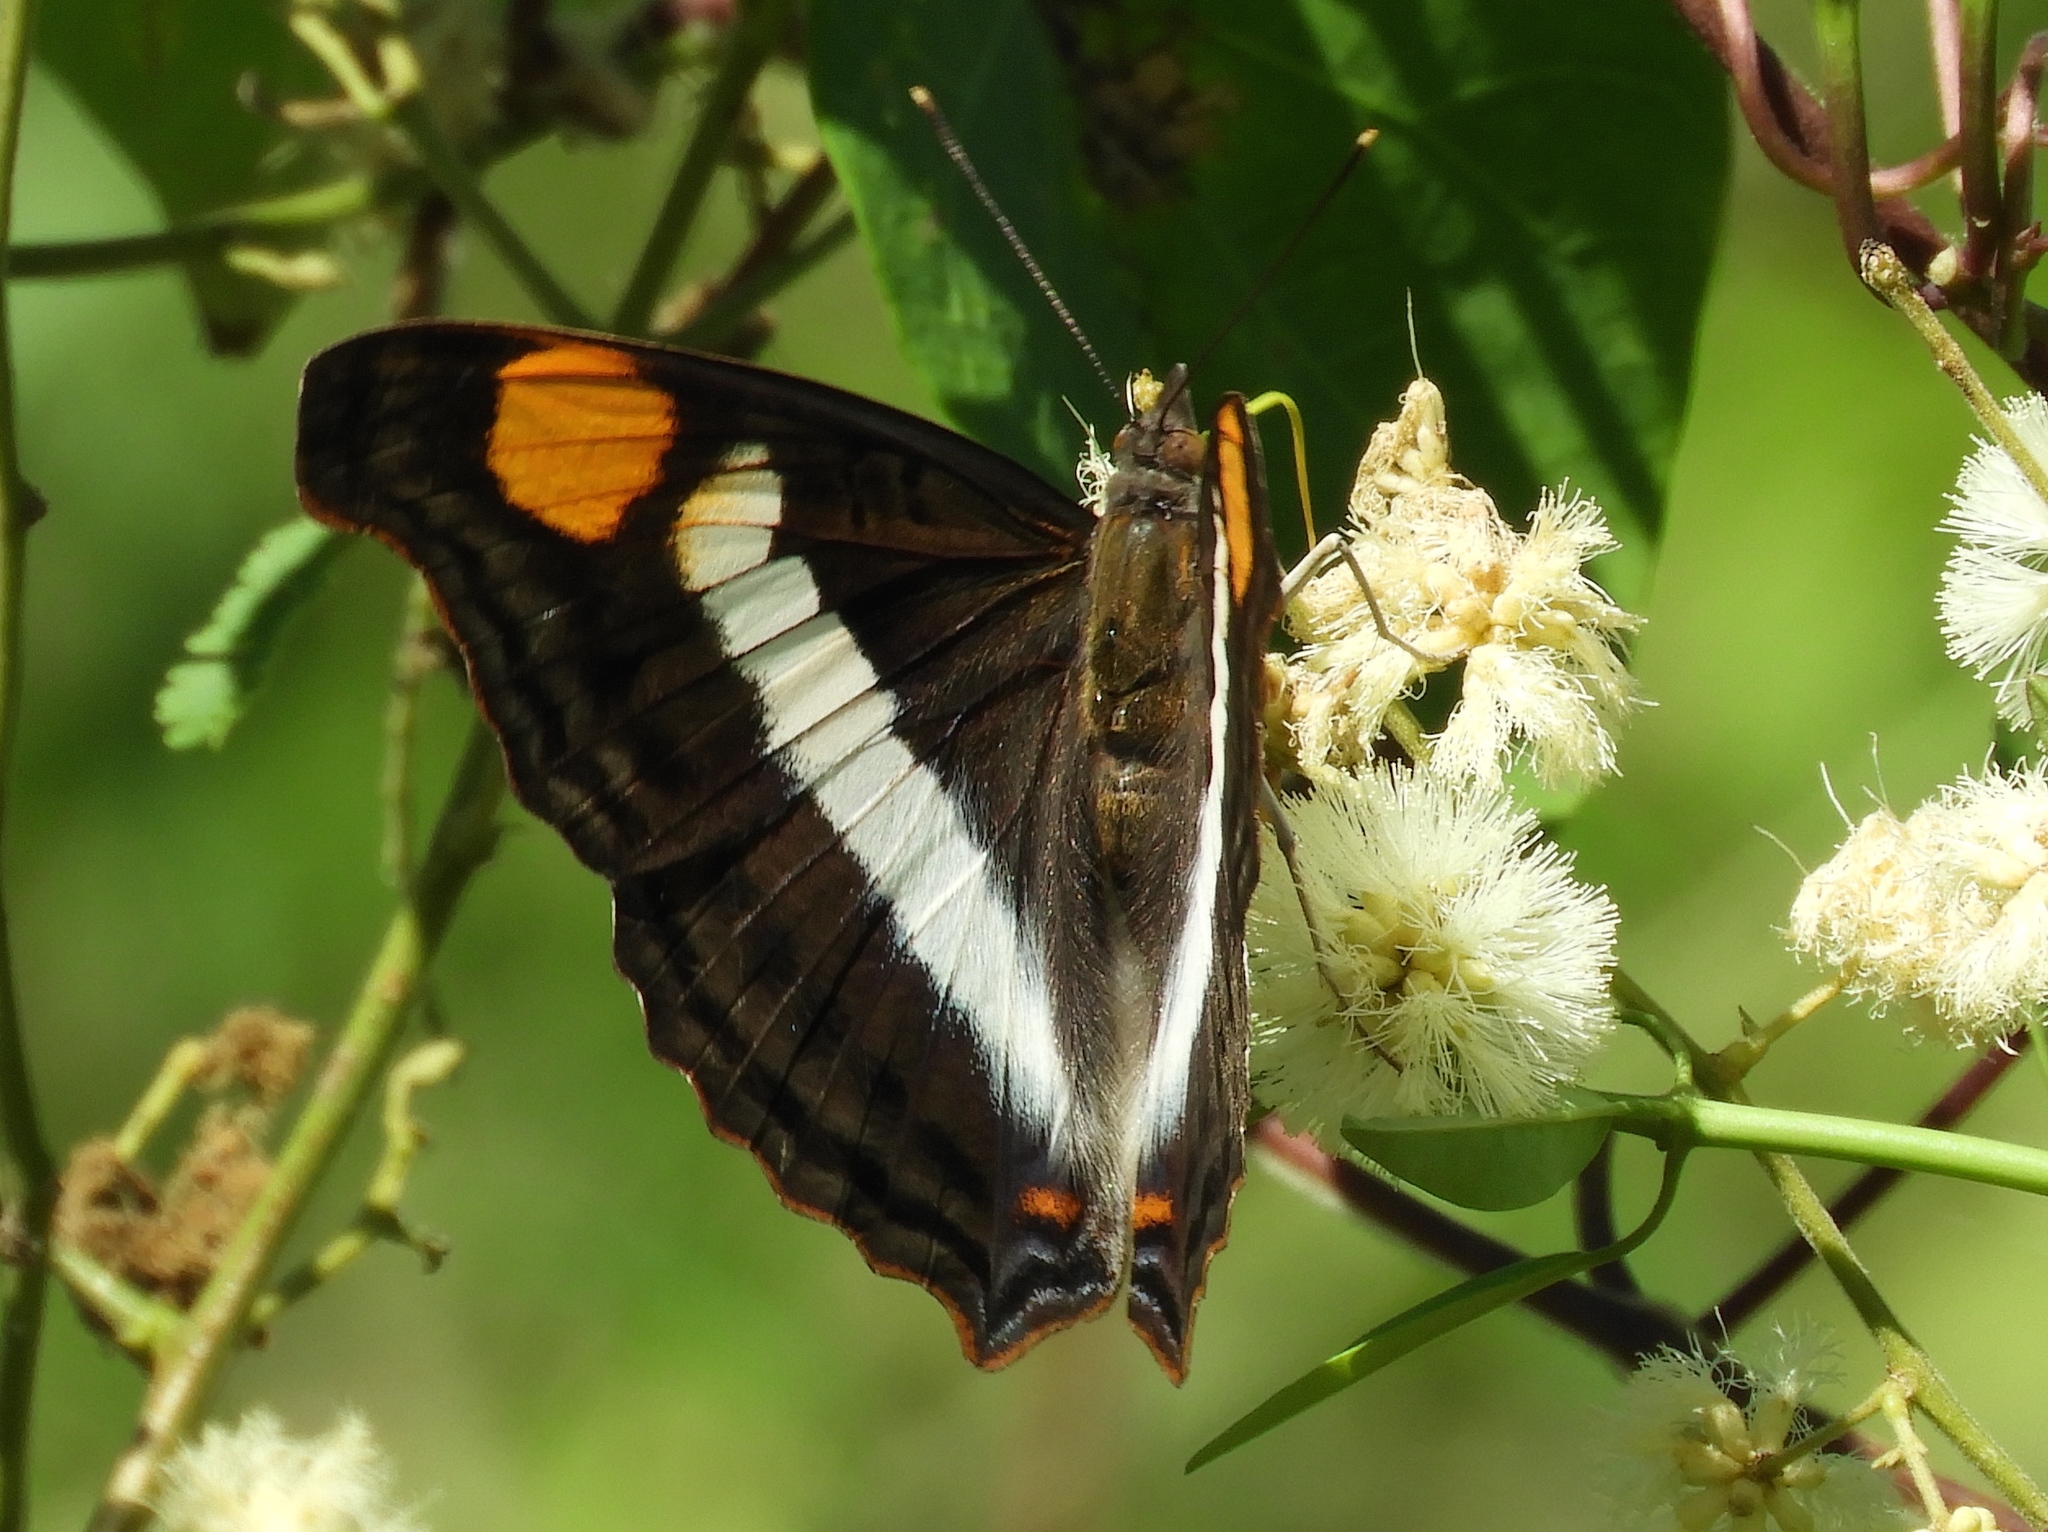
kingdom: Animalia
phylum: Arthropoda
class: Insecta
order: Lepidoptera
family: Nymphalidae
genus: Doxocopa
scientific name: Doxocopa laure
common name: Silver emperor
